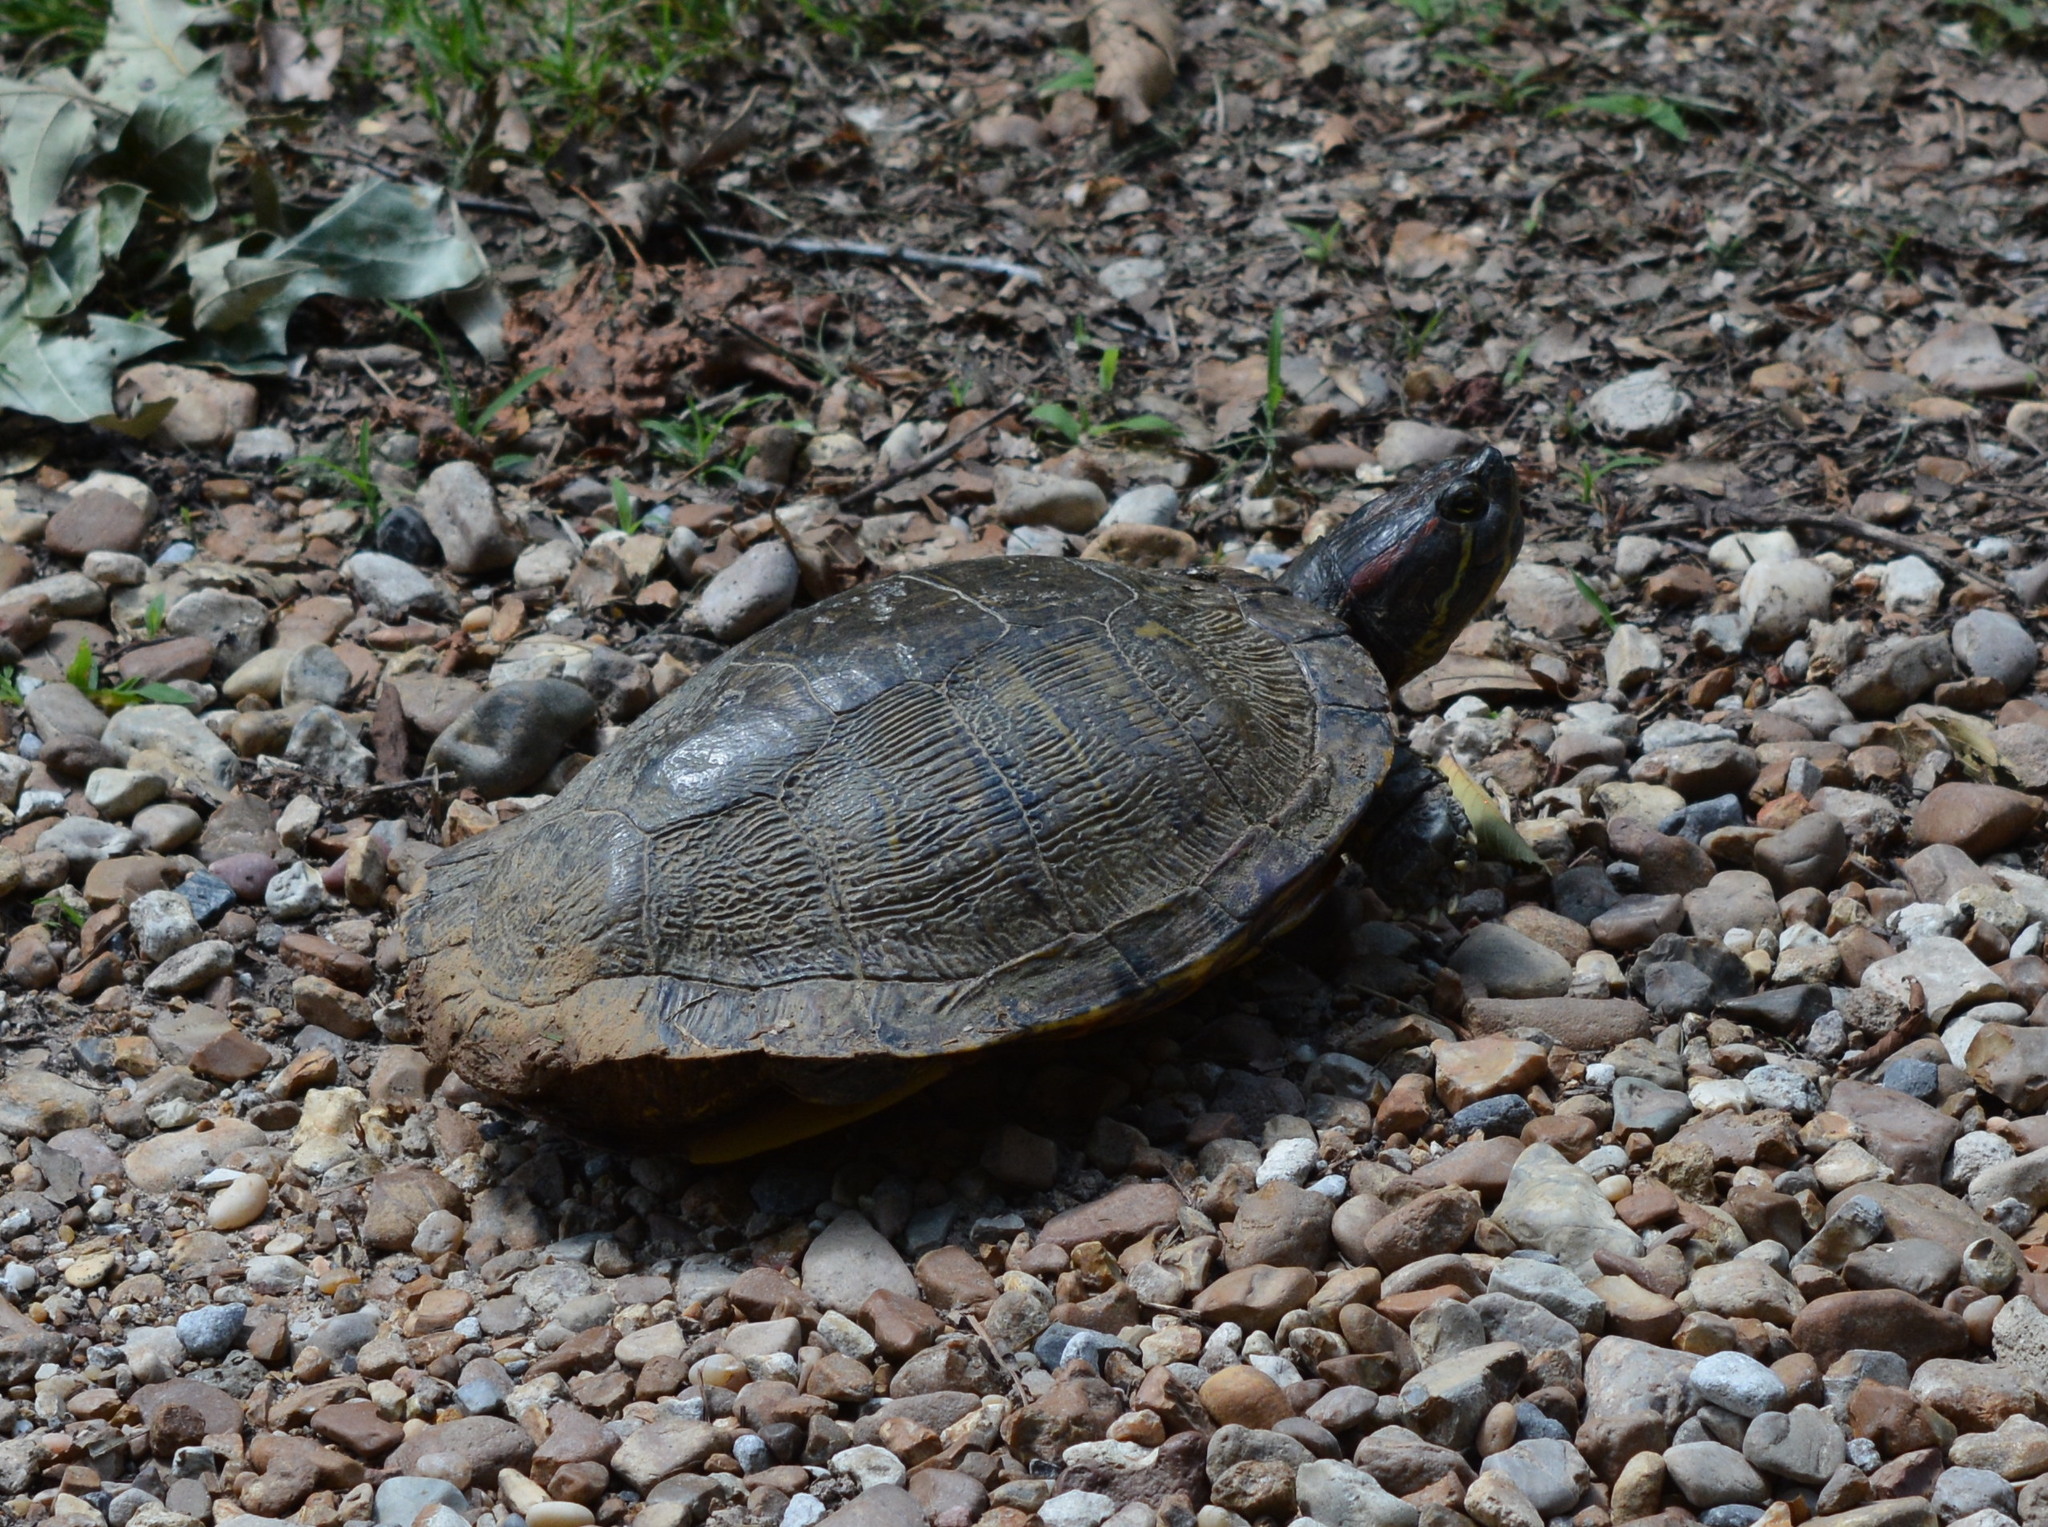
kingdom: Animalia
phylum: Chordata
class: Testudines
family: Emydidae
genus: Trachemys
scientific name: Trachemys scripta
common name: Slider
